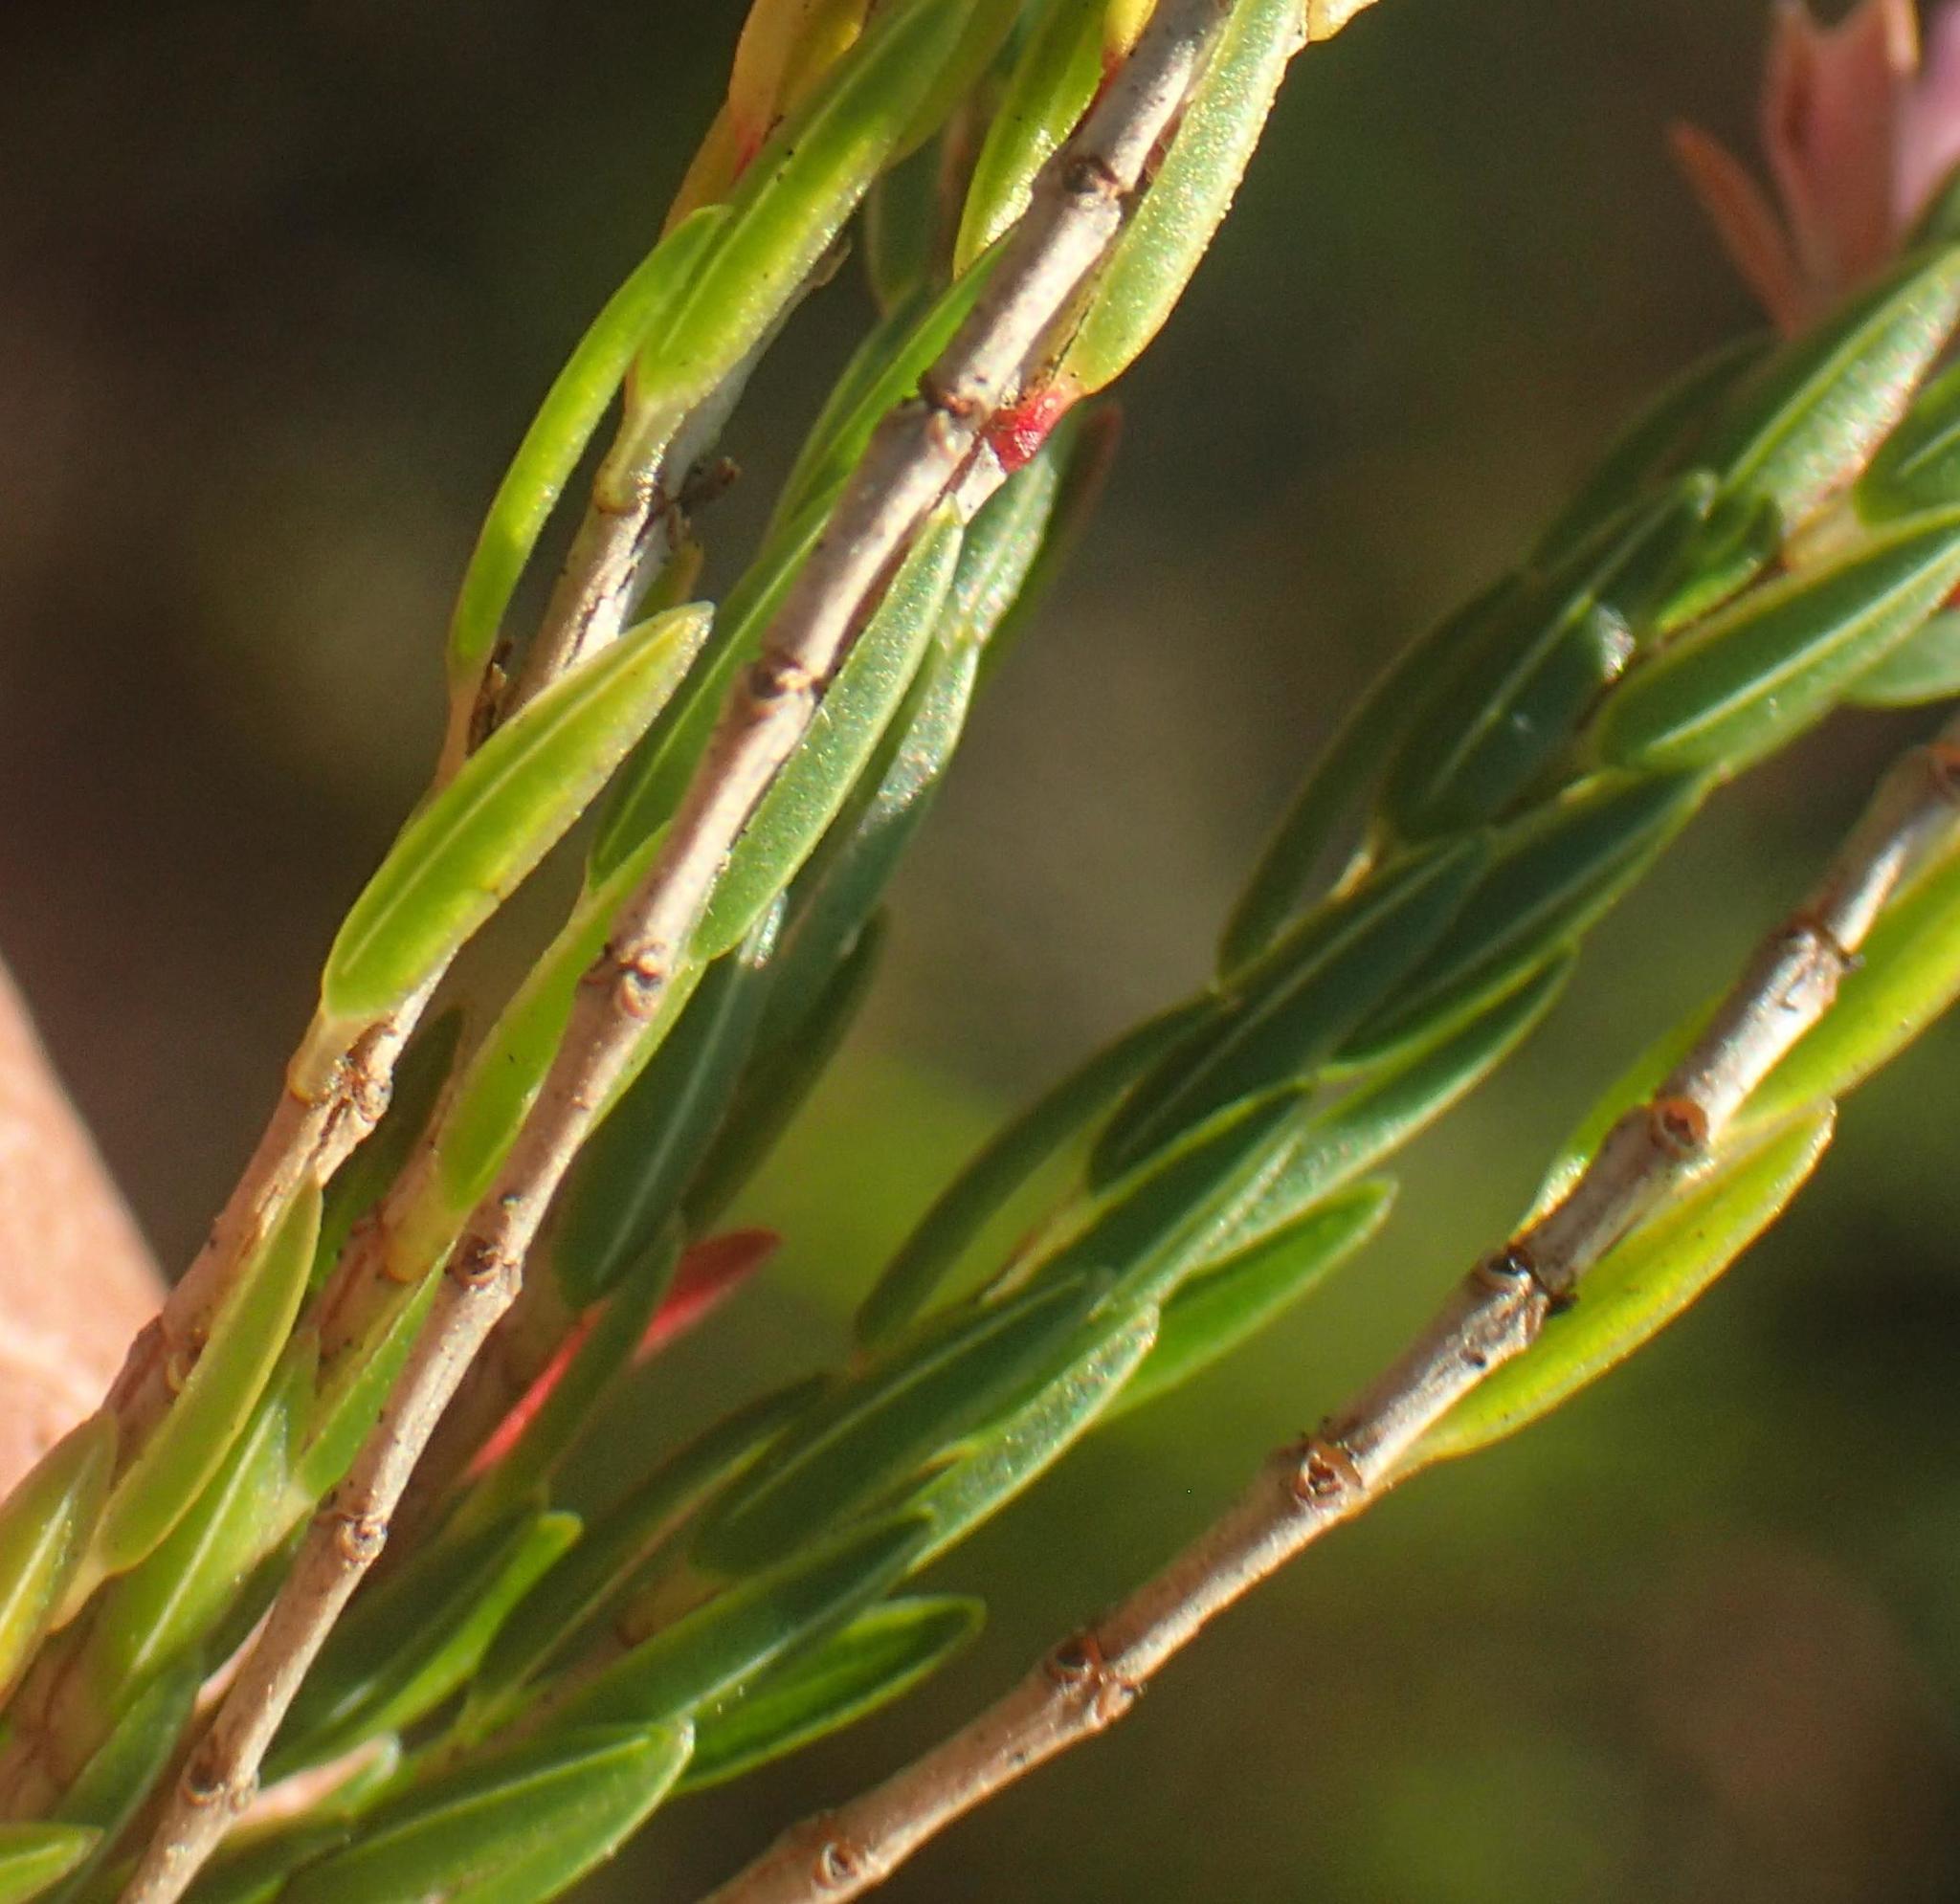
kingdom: Plantae
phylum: Tracheophyta
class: Magnoliopsida
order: Ericales
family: Ericaceae
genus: Erica
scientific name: Erica steinbergiana
